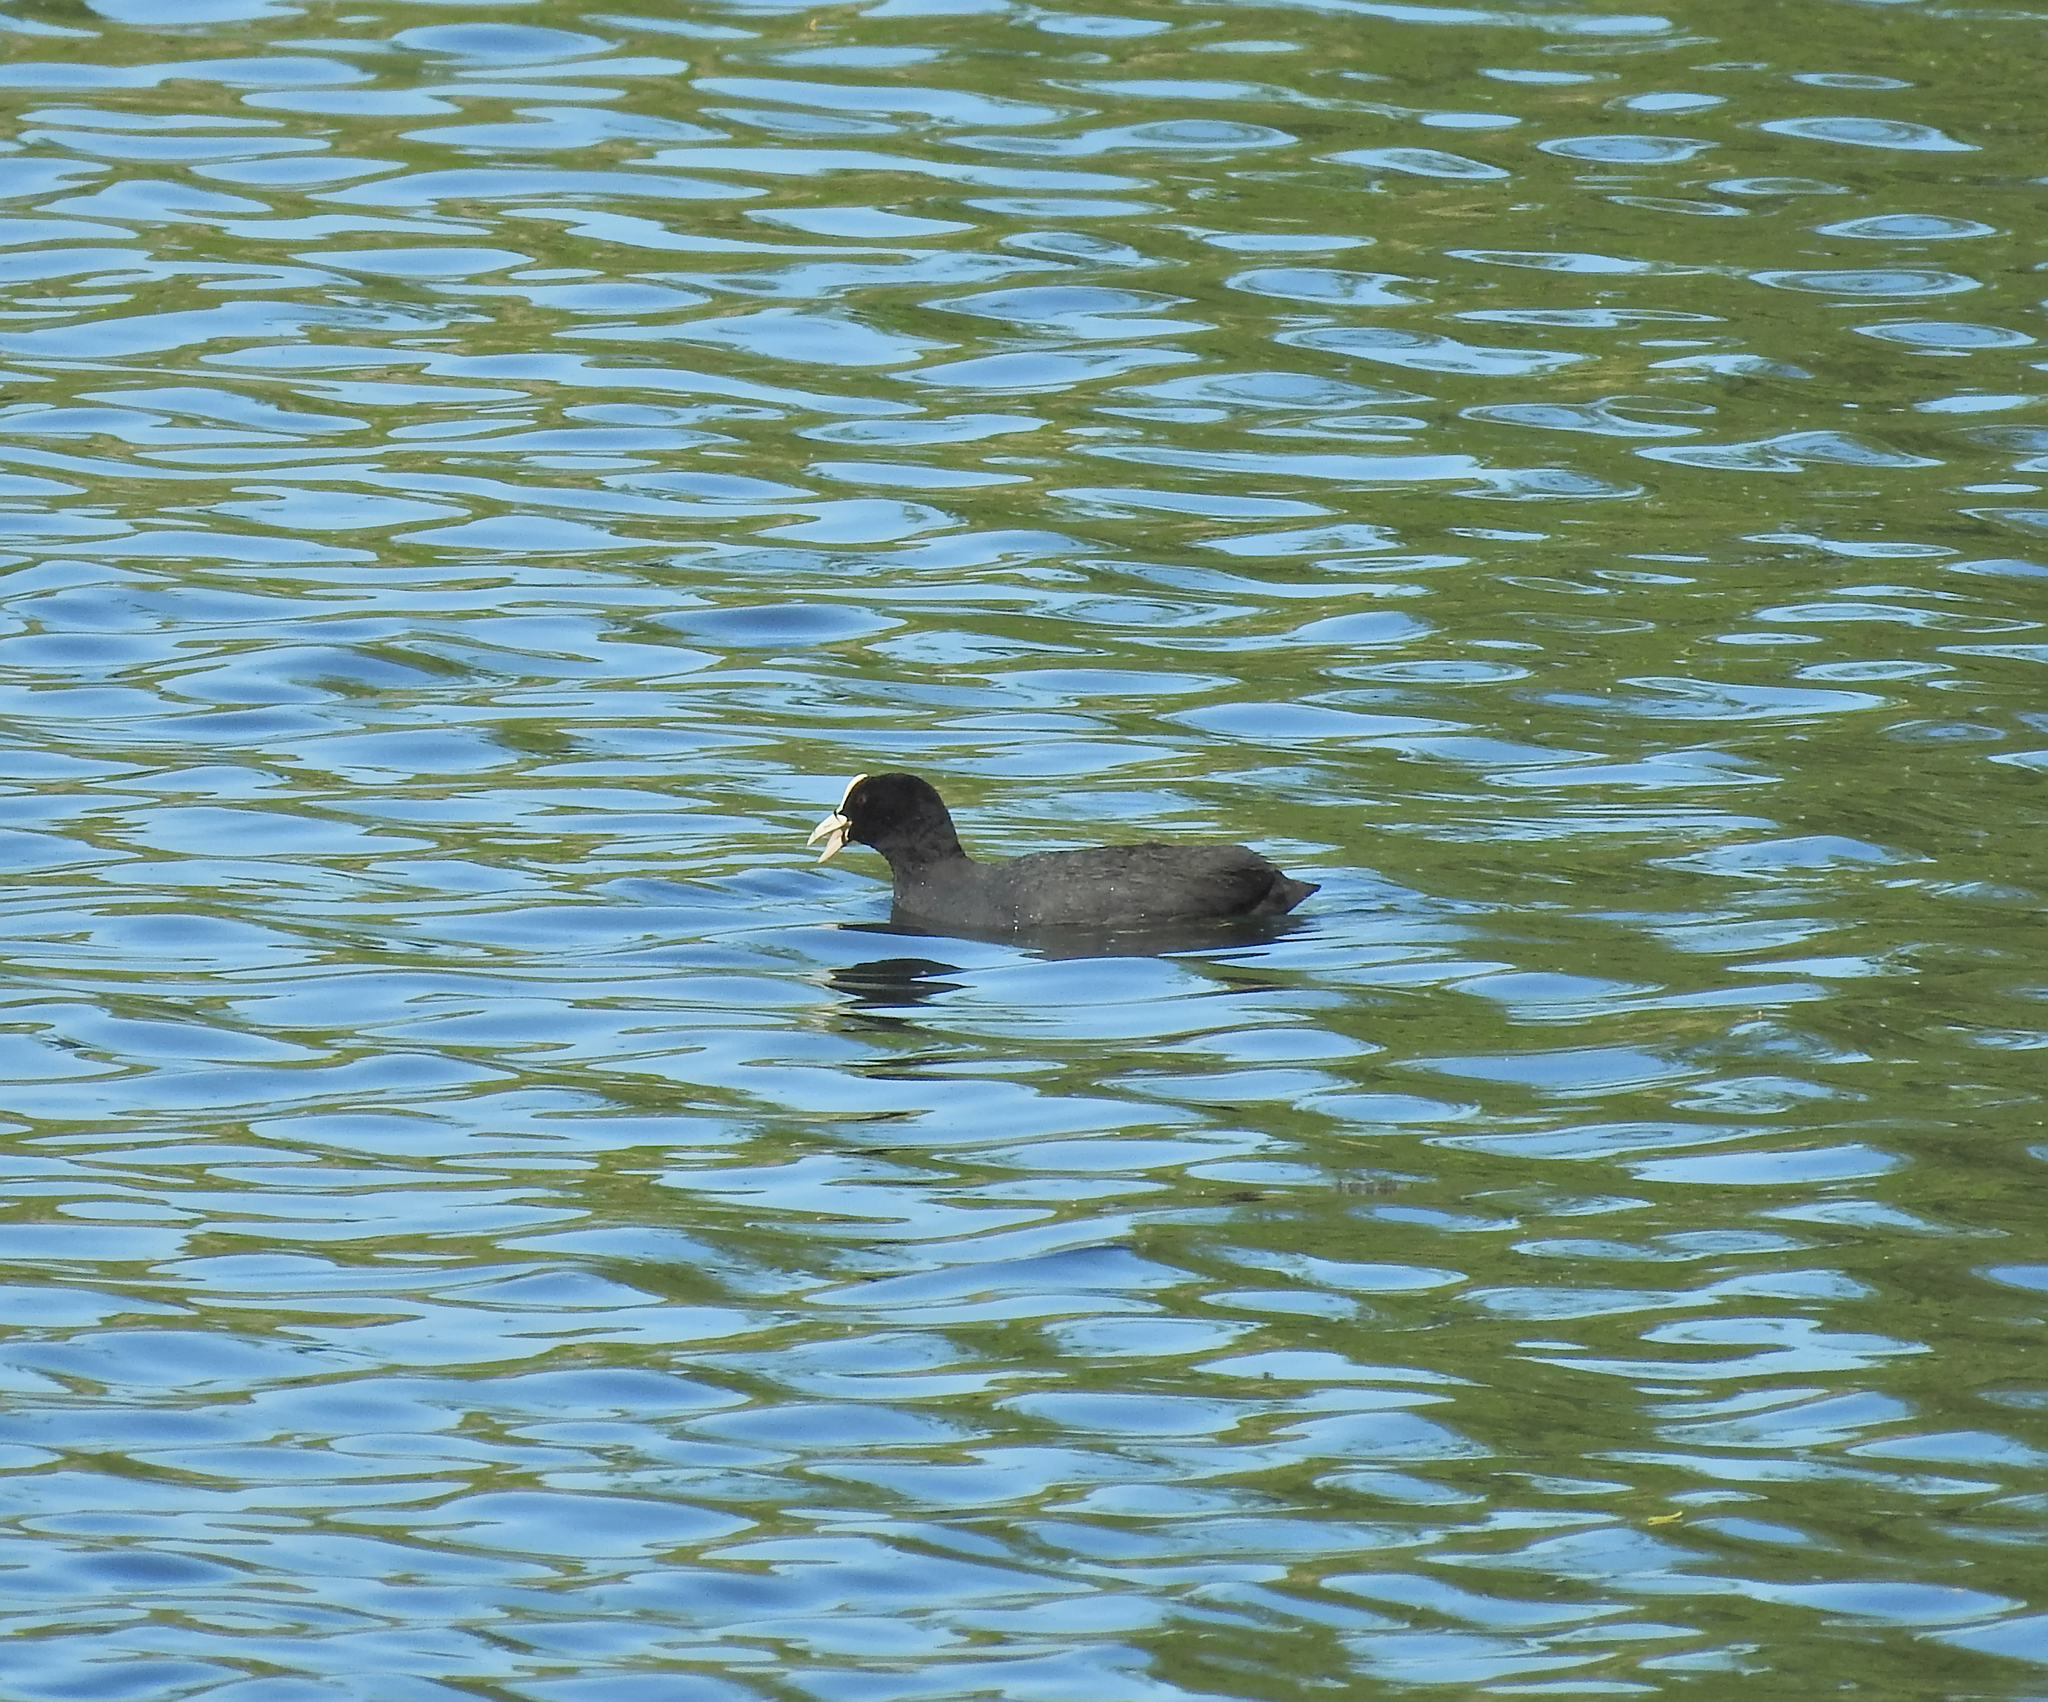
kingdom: Animalia
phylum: Chordata
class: Aves
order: Gruiformes
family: Rallidae
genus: Fulica
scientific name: Fulica atra
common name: Eurasian coot
